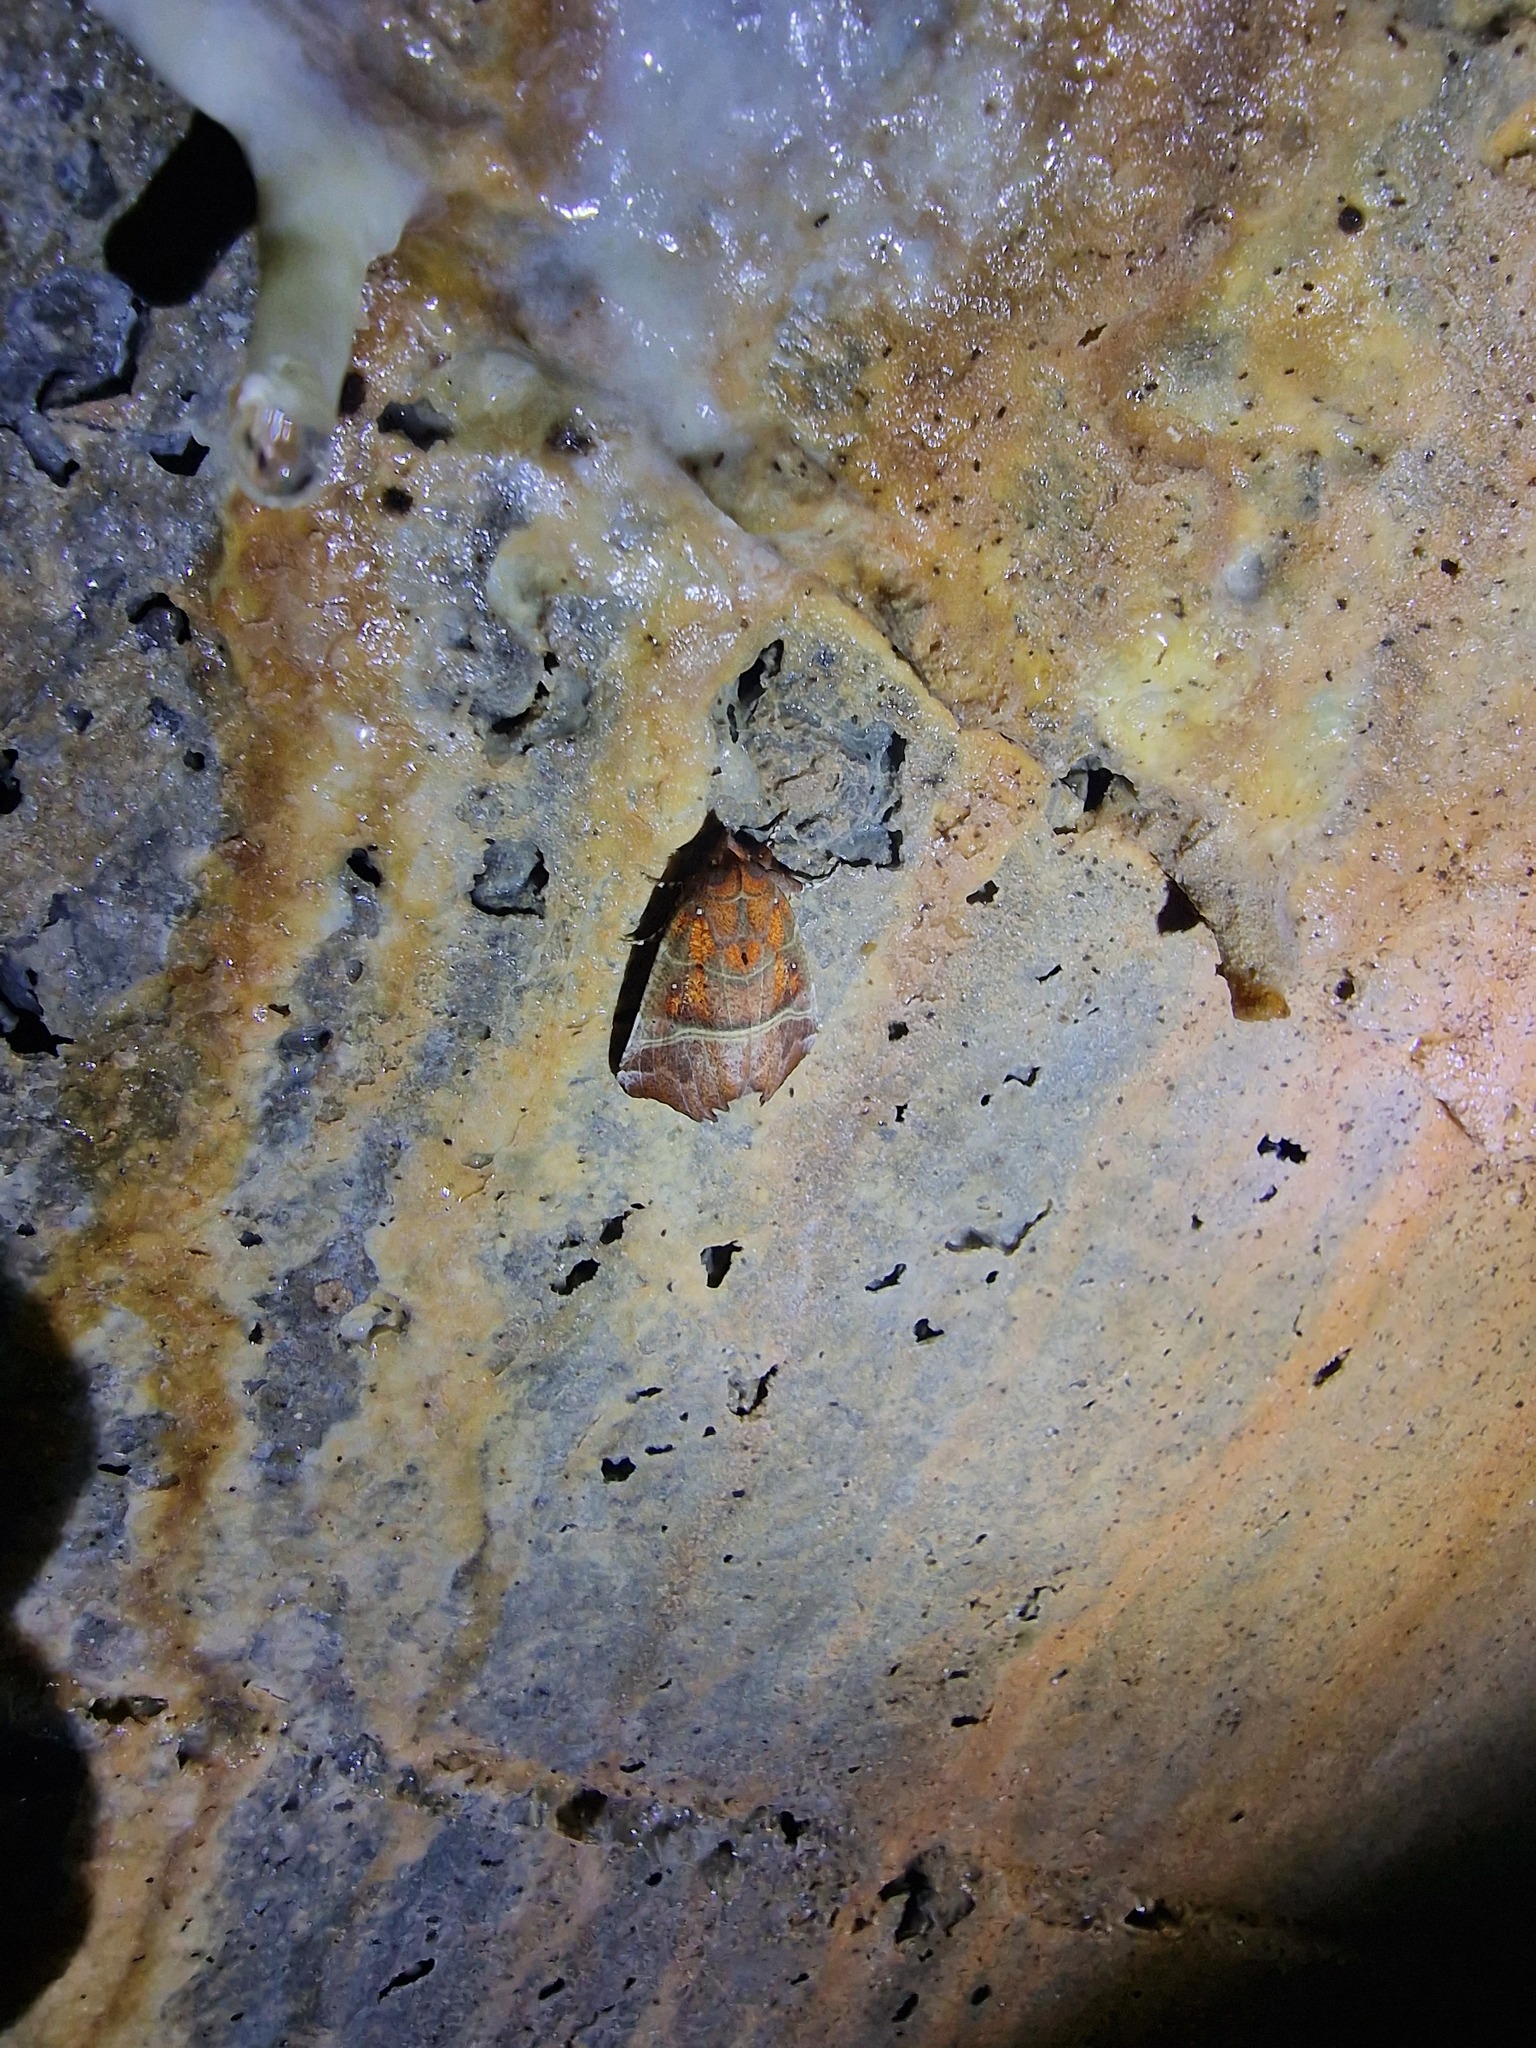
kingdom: Animalia
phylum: Arthropoda
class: Insecta
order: Lepidoptera
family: Erebidae
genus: Scoliopteryx
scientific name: Scoliopteryx libatrix
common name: Herald
